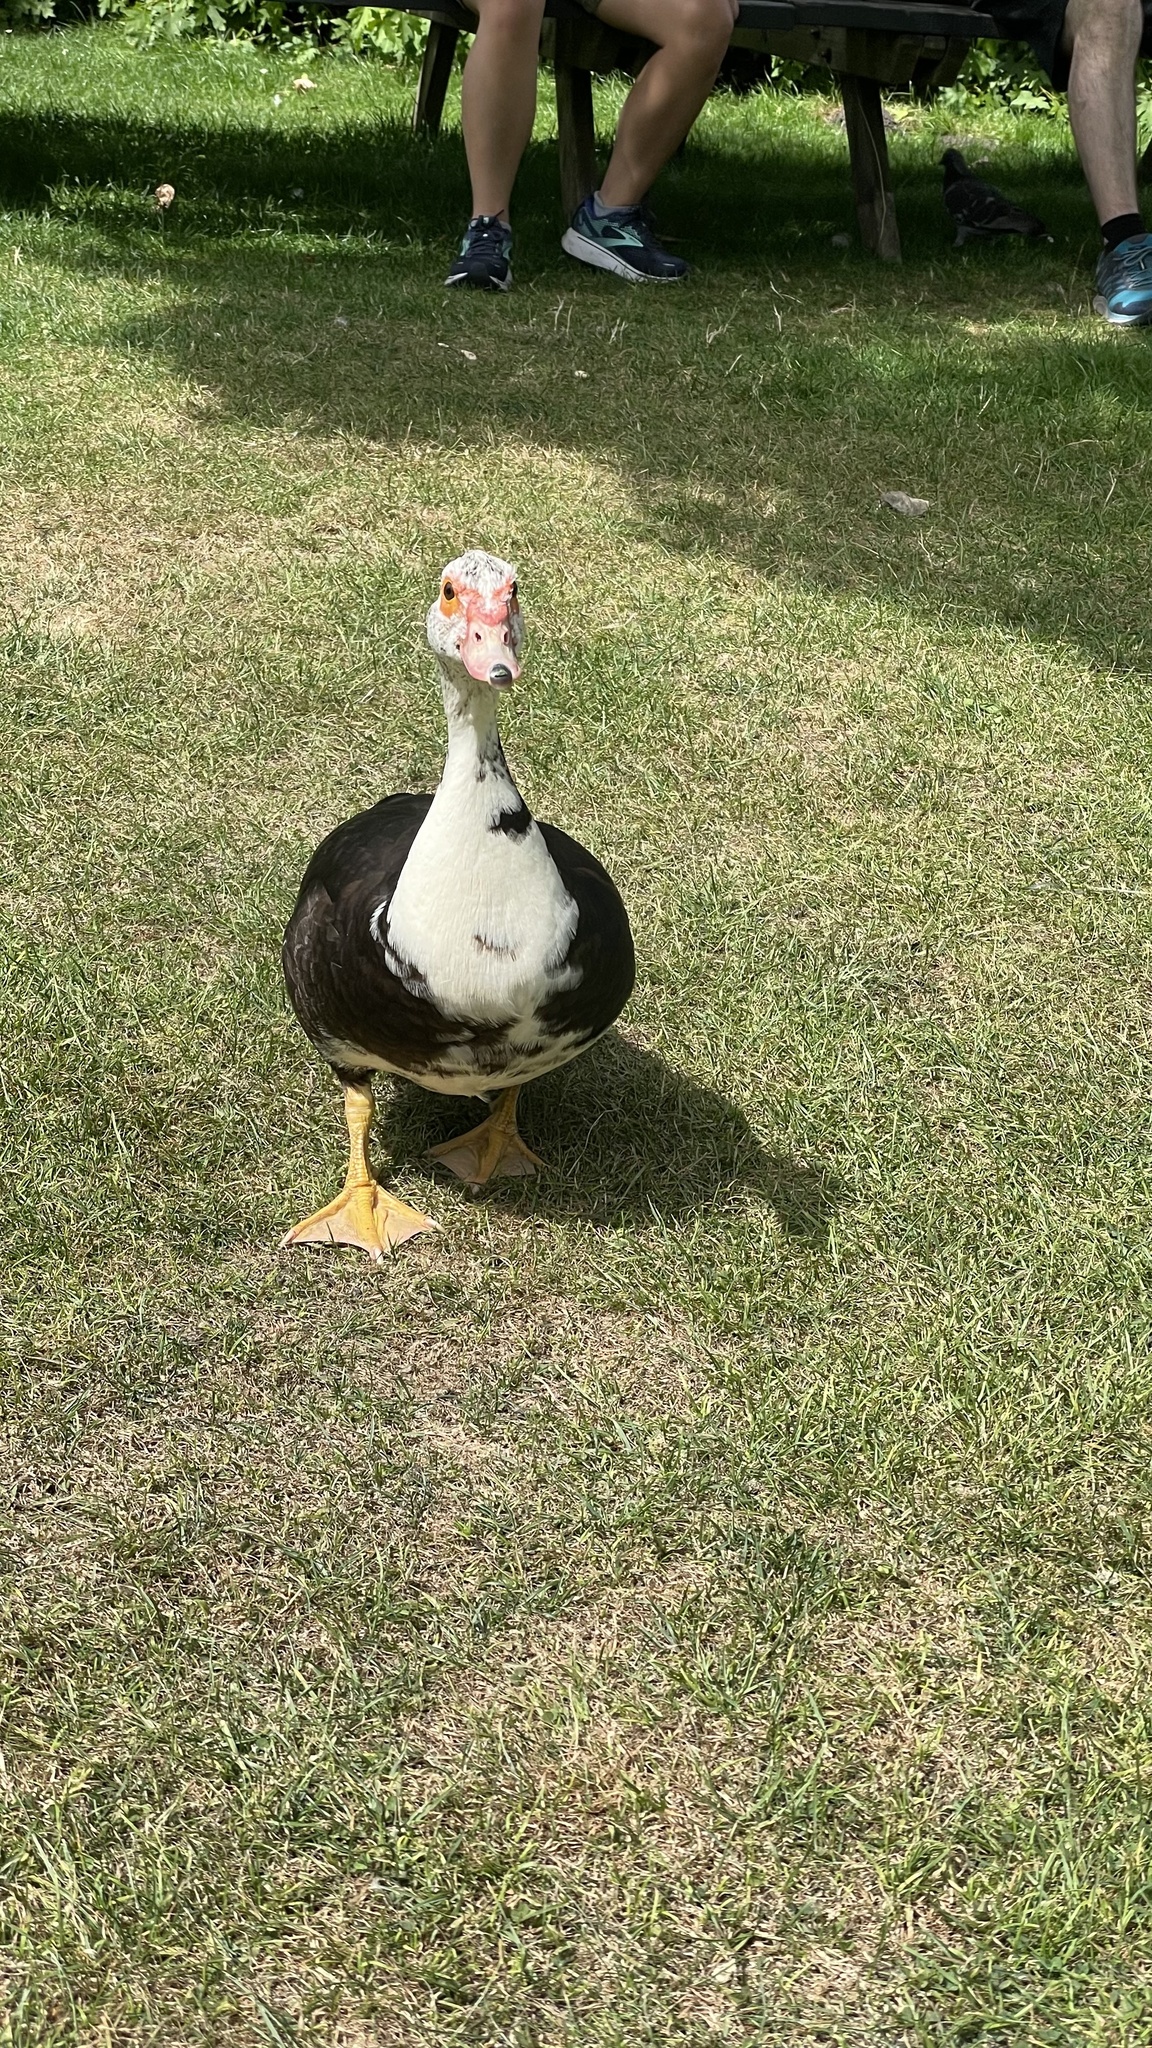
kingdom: Animalia
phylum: Chordata
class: Aves
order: Anseriformes
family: Anatidae
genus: Cairina
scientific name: Cairina moschata
